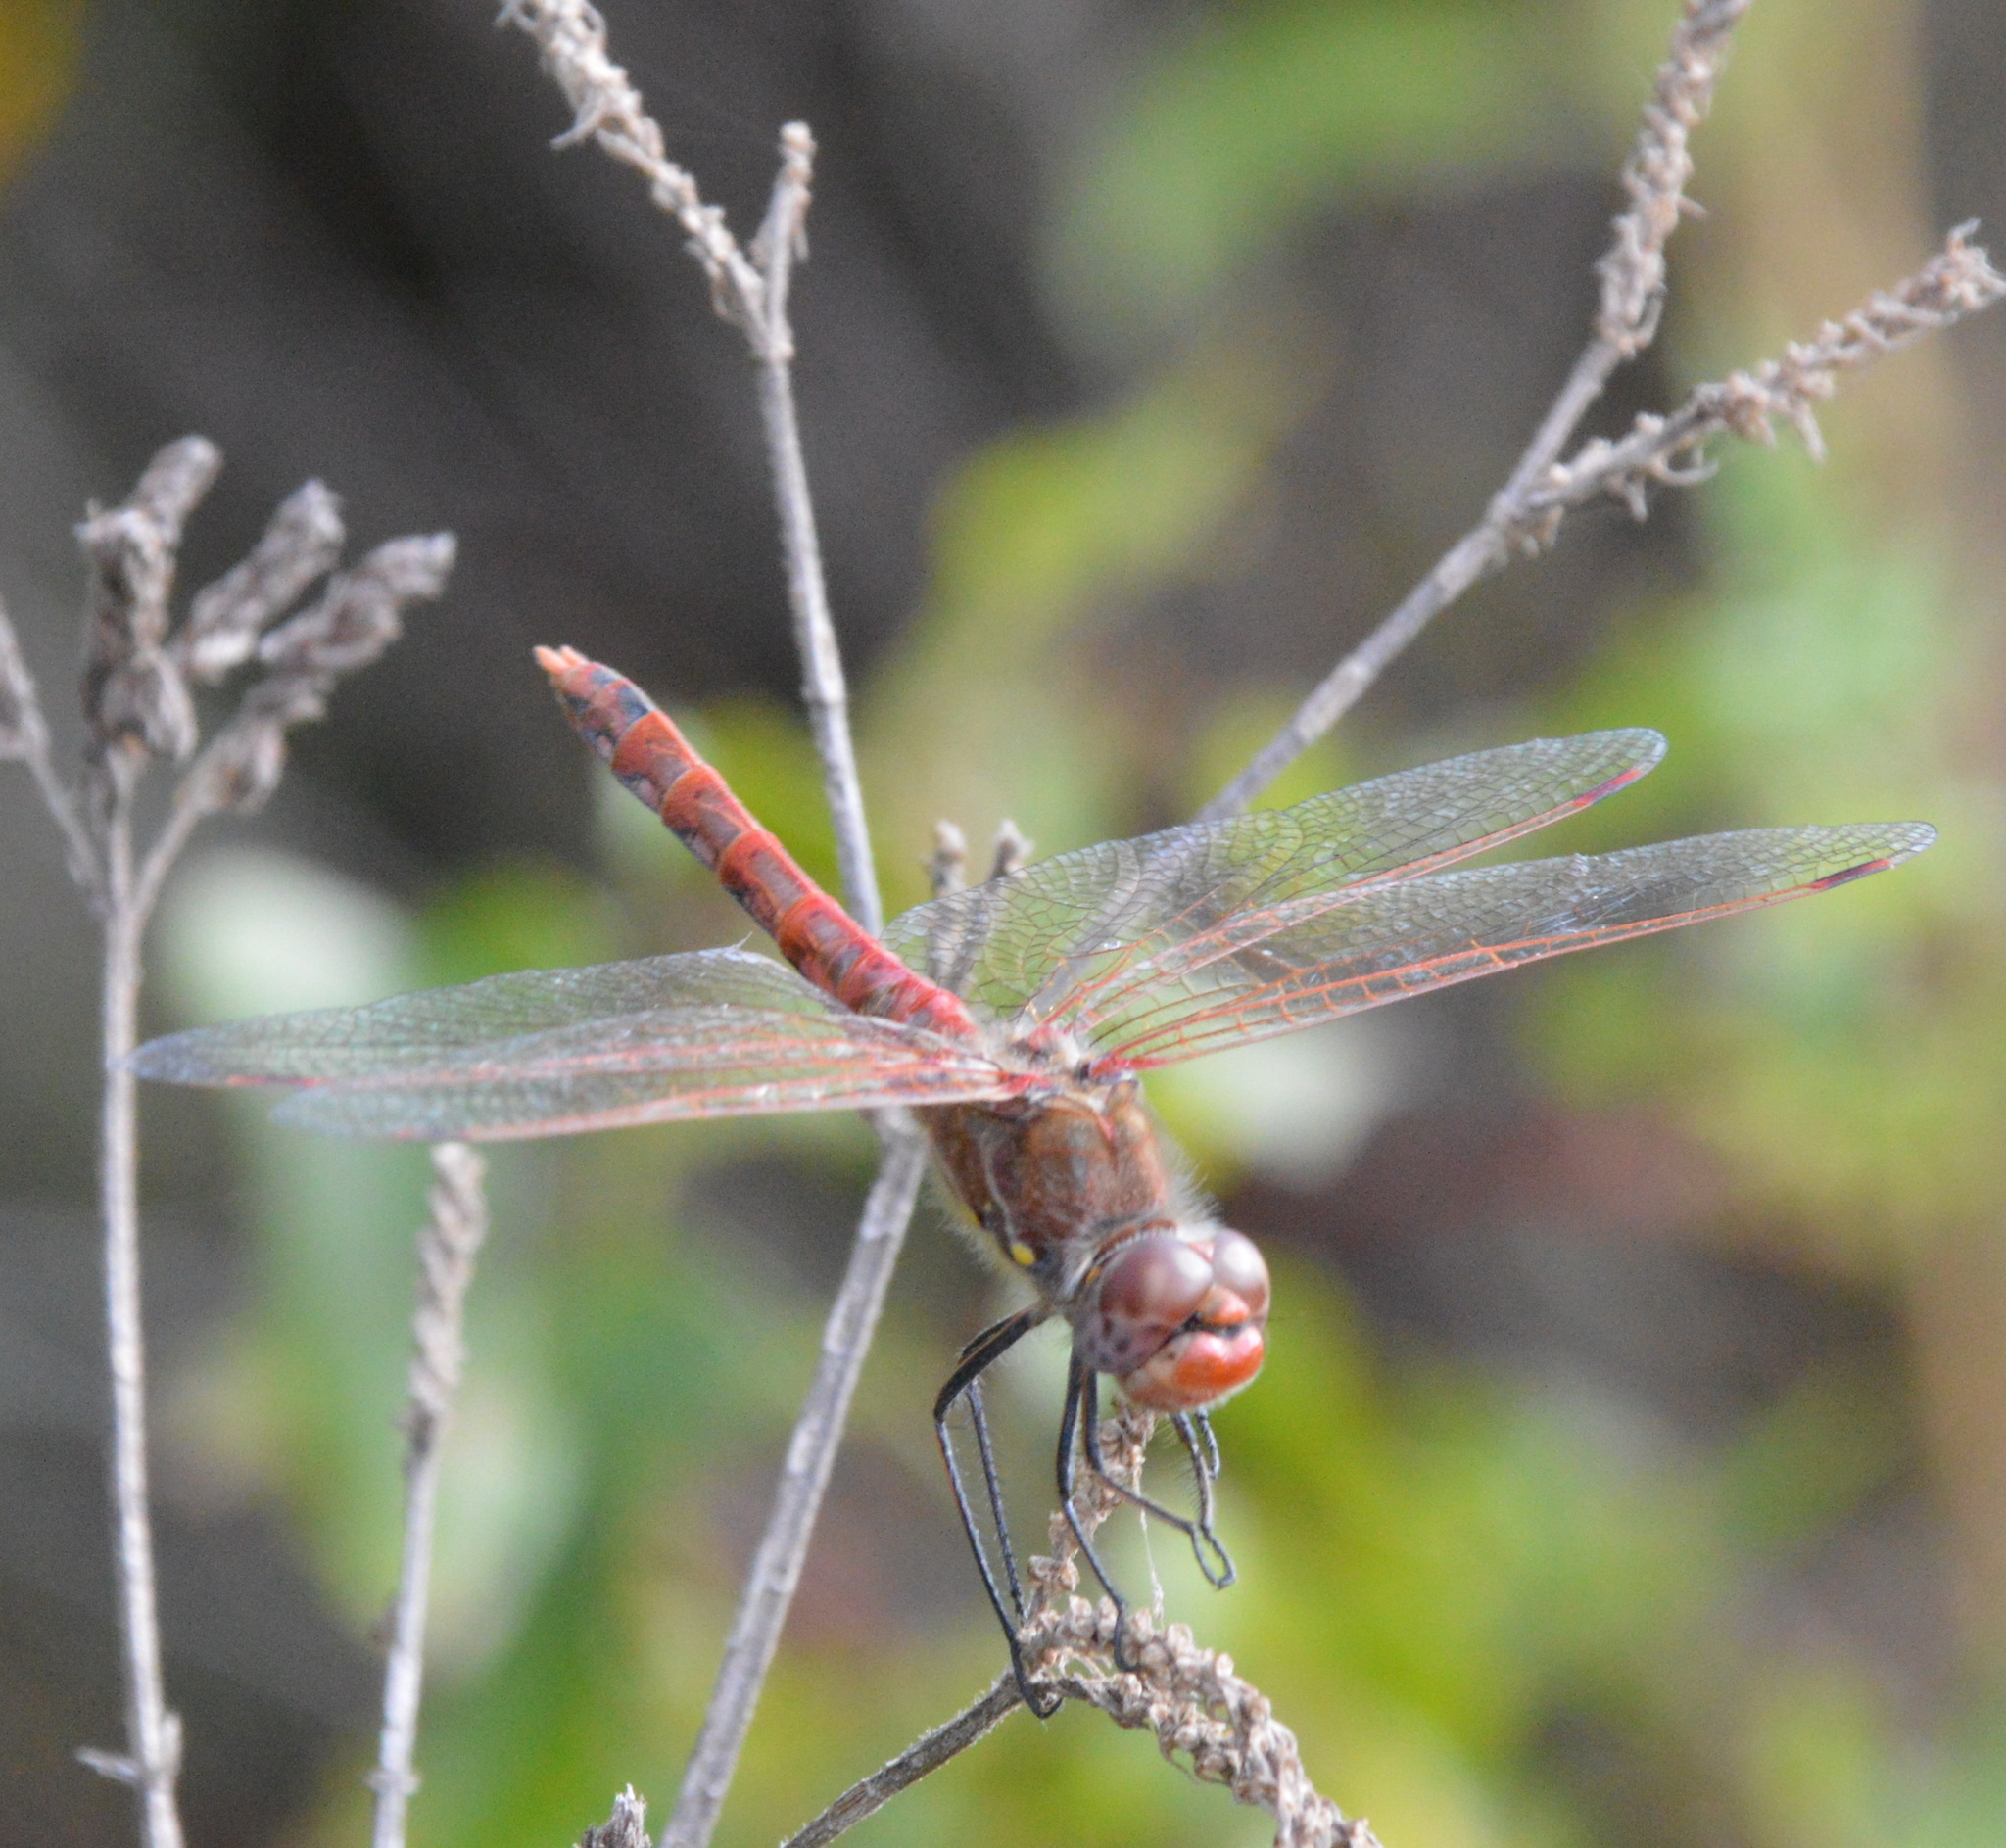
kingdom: Animalia
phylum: Arthropoda
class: Insecta
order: Odonata
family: Libellulidae
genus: Sympetrum
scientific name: Sympetrum corruptum
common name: Variegated meadowhawk
